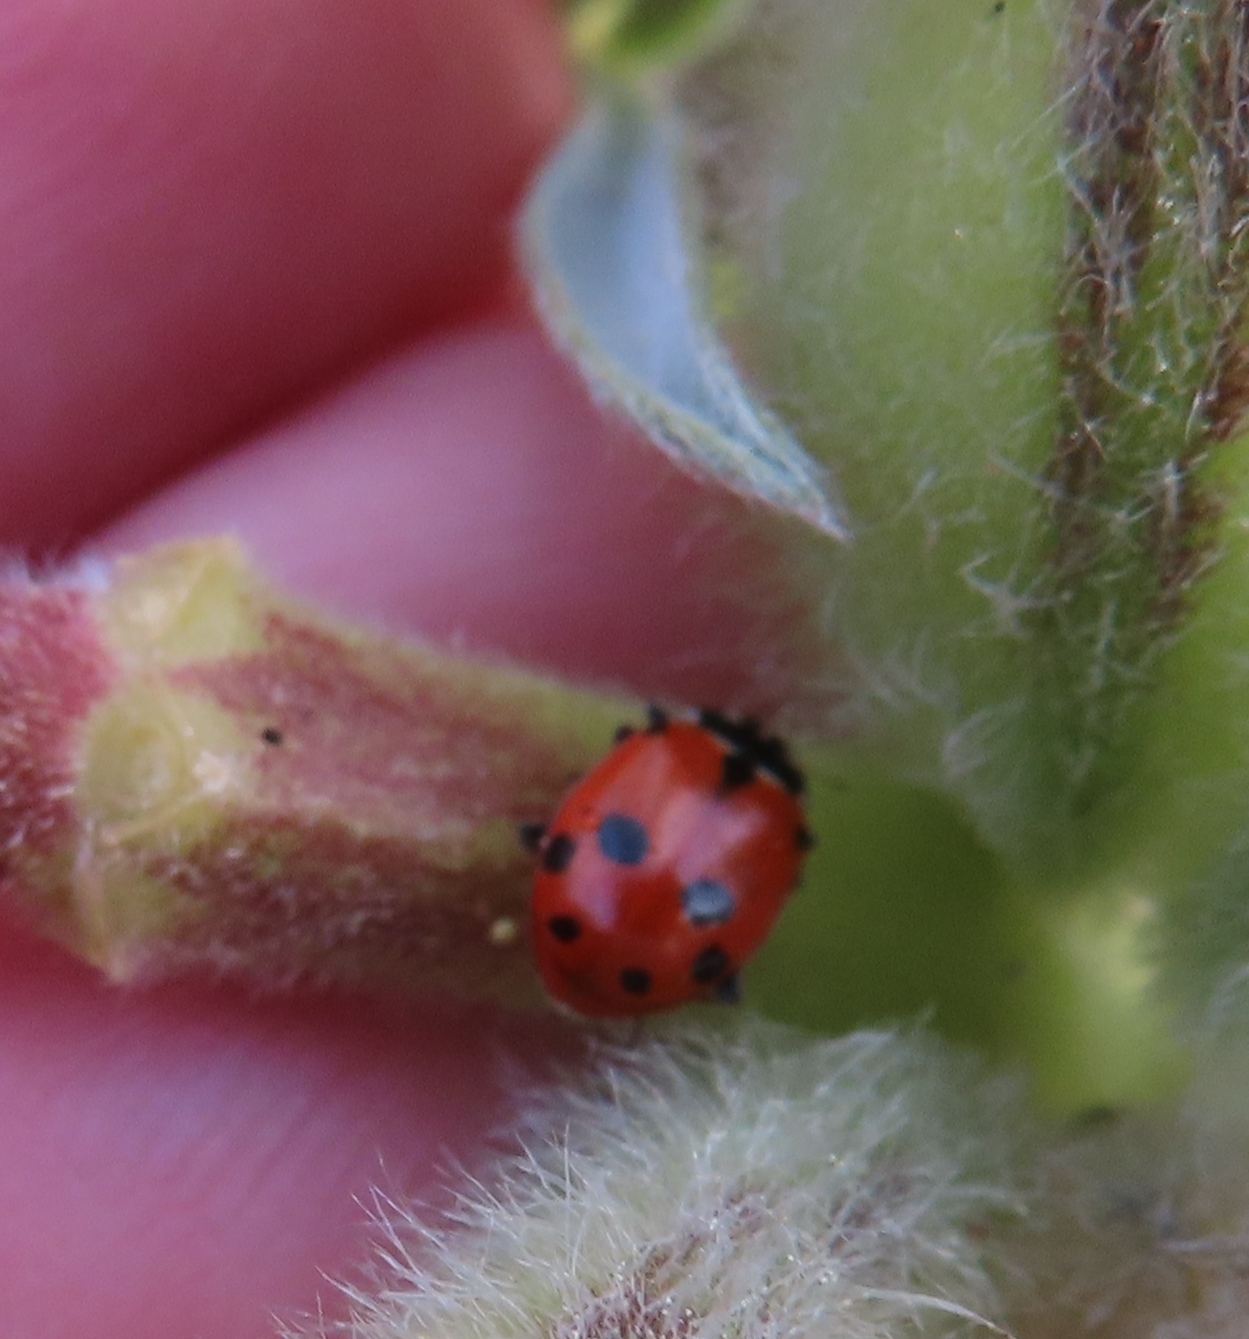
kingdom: Animalia
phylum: Arthropoda
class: Insecta
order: Coleoptera
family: Coccinellidae
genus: Hippodamia
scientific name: Hippodamia variegata
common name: Ladybird beetle
